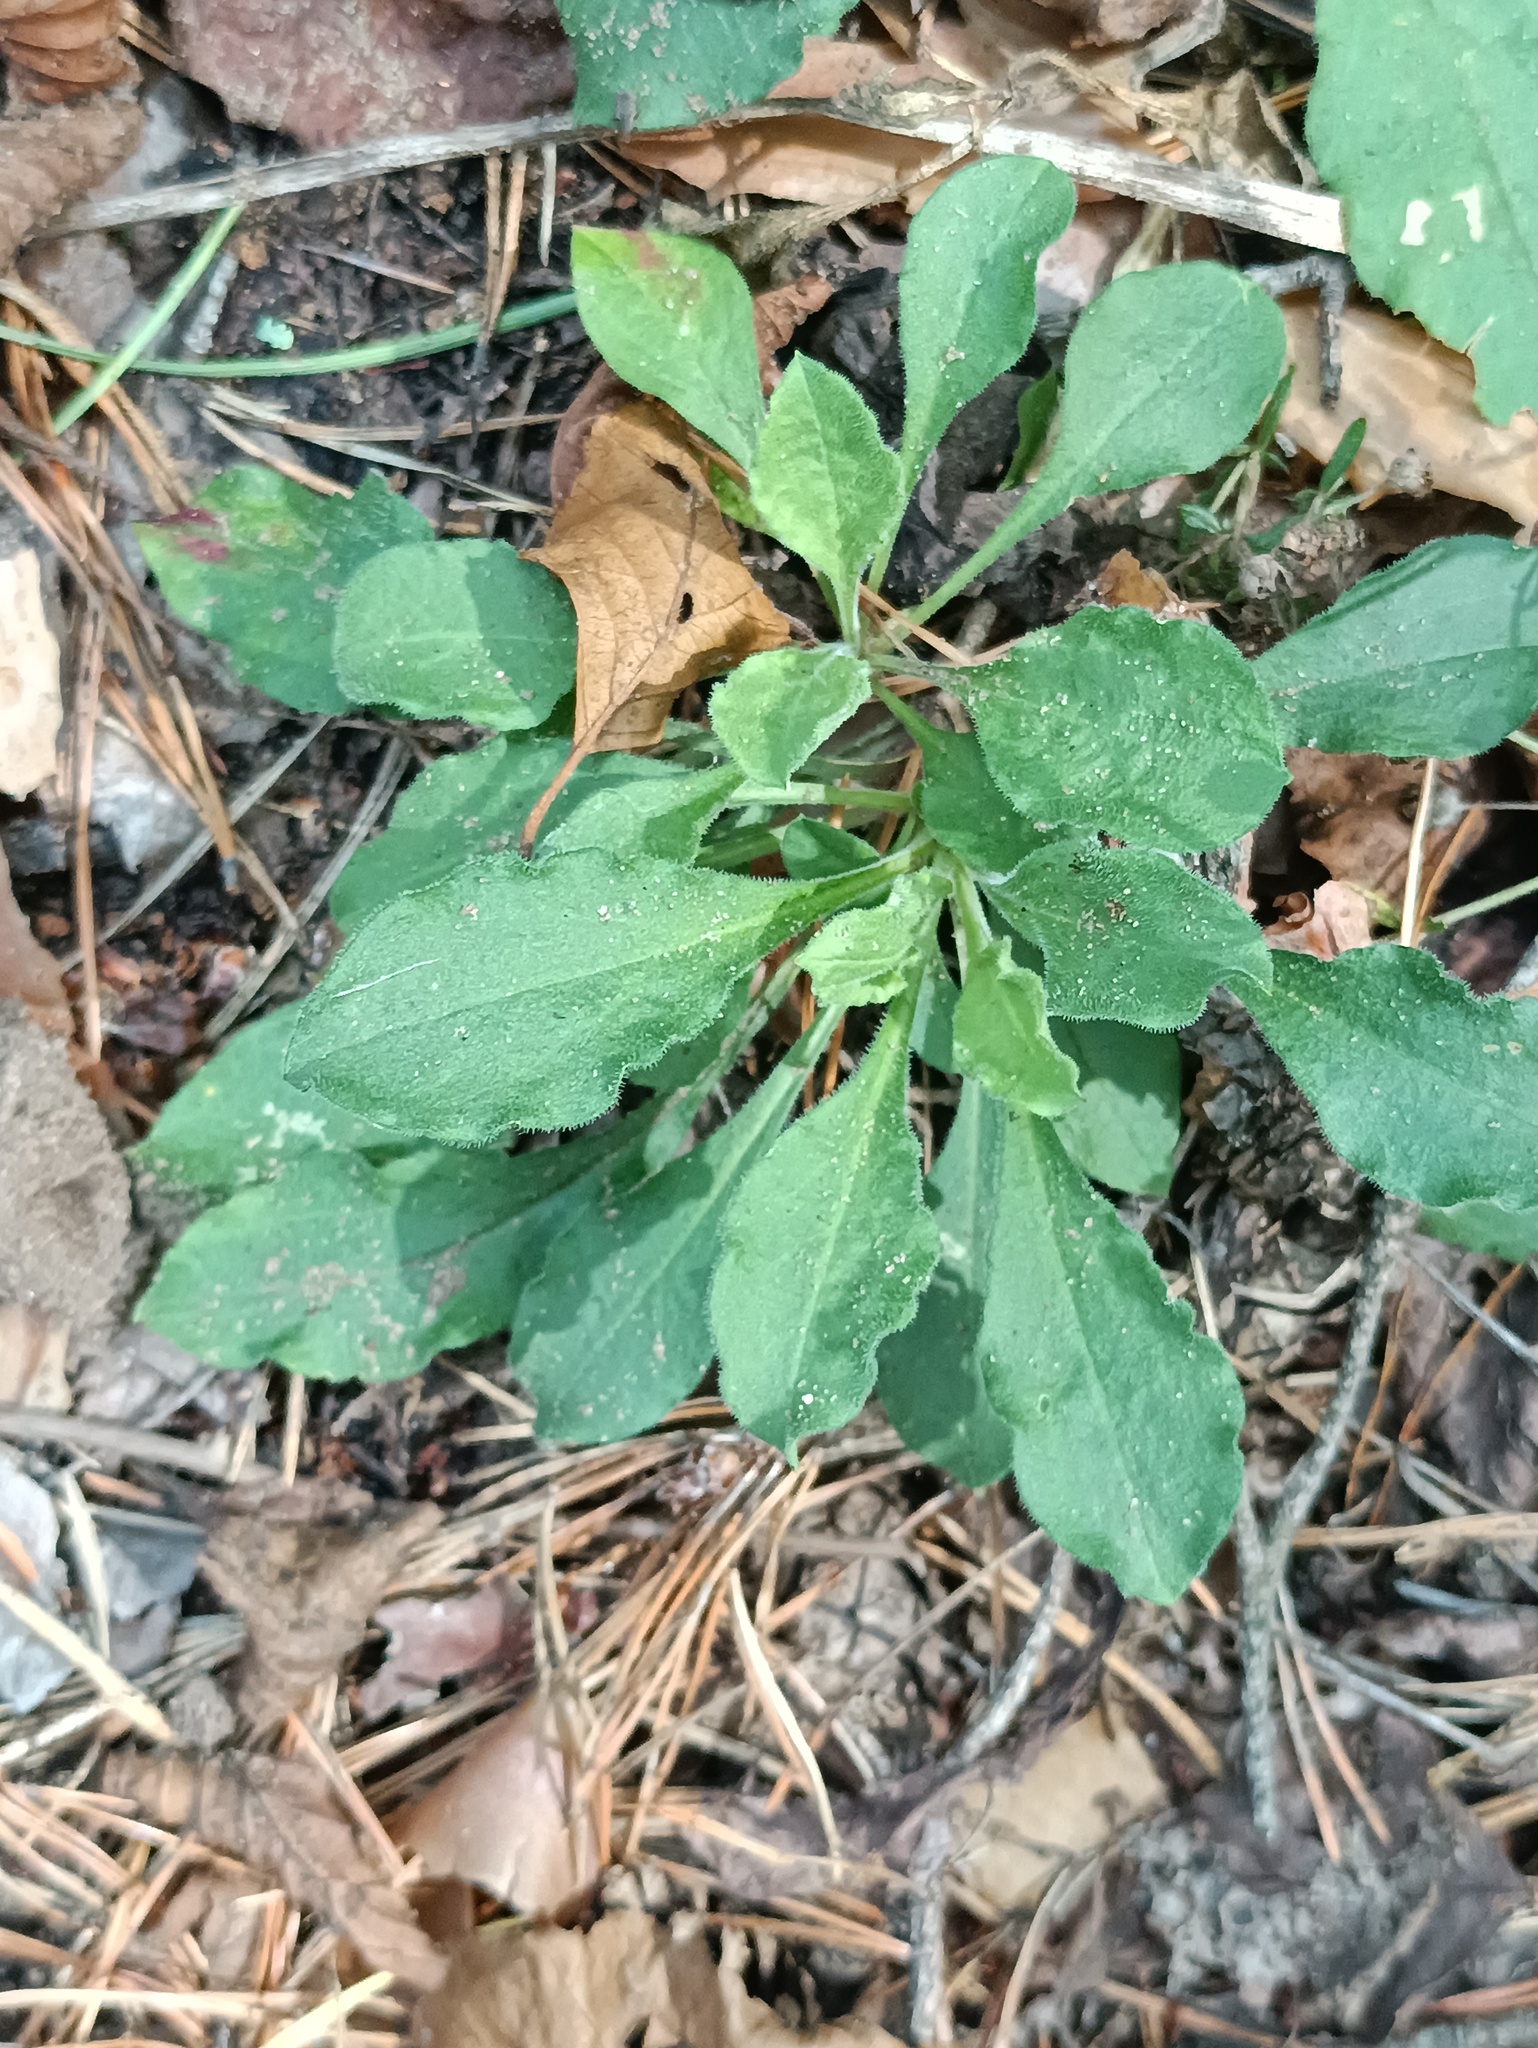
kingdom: Plantae
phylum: Tracheophyta
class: Magnoliopsida
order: Caryophyllales
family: Caryophyllaceae
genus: Silene
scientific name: Silene nutans
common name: Nottingham catchfly
